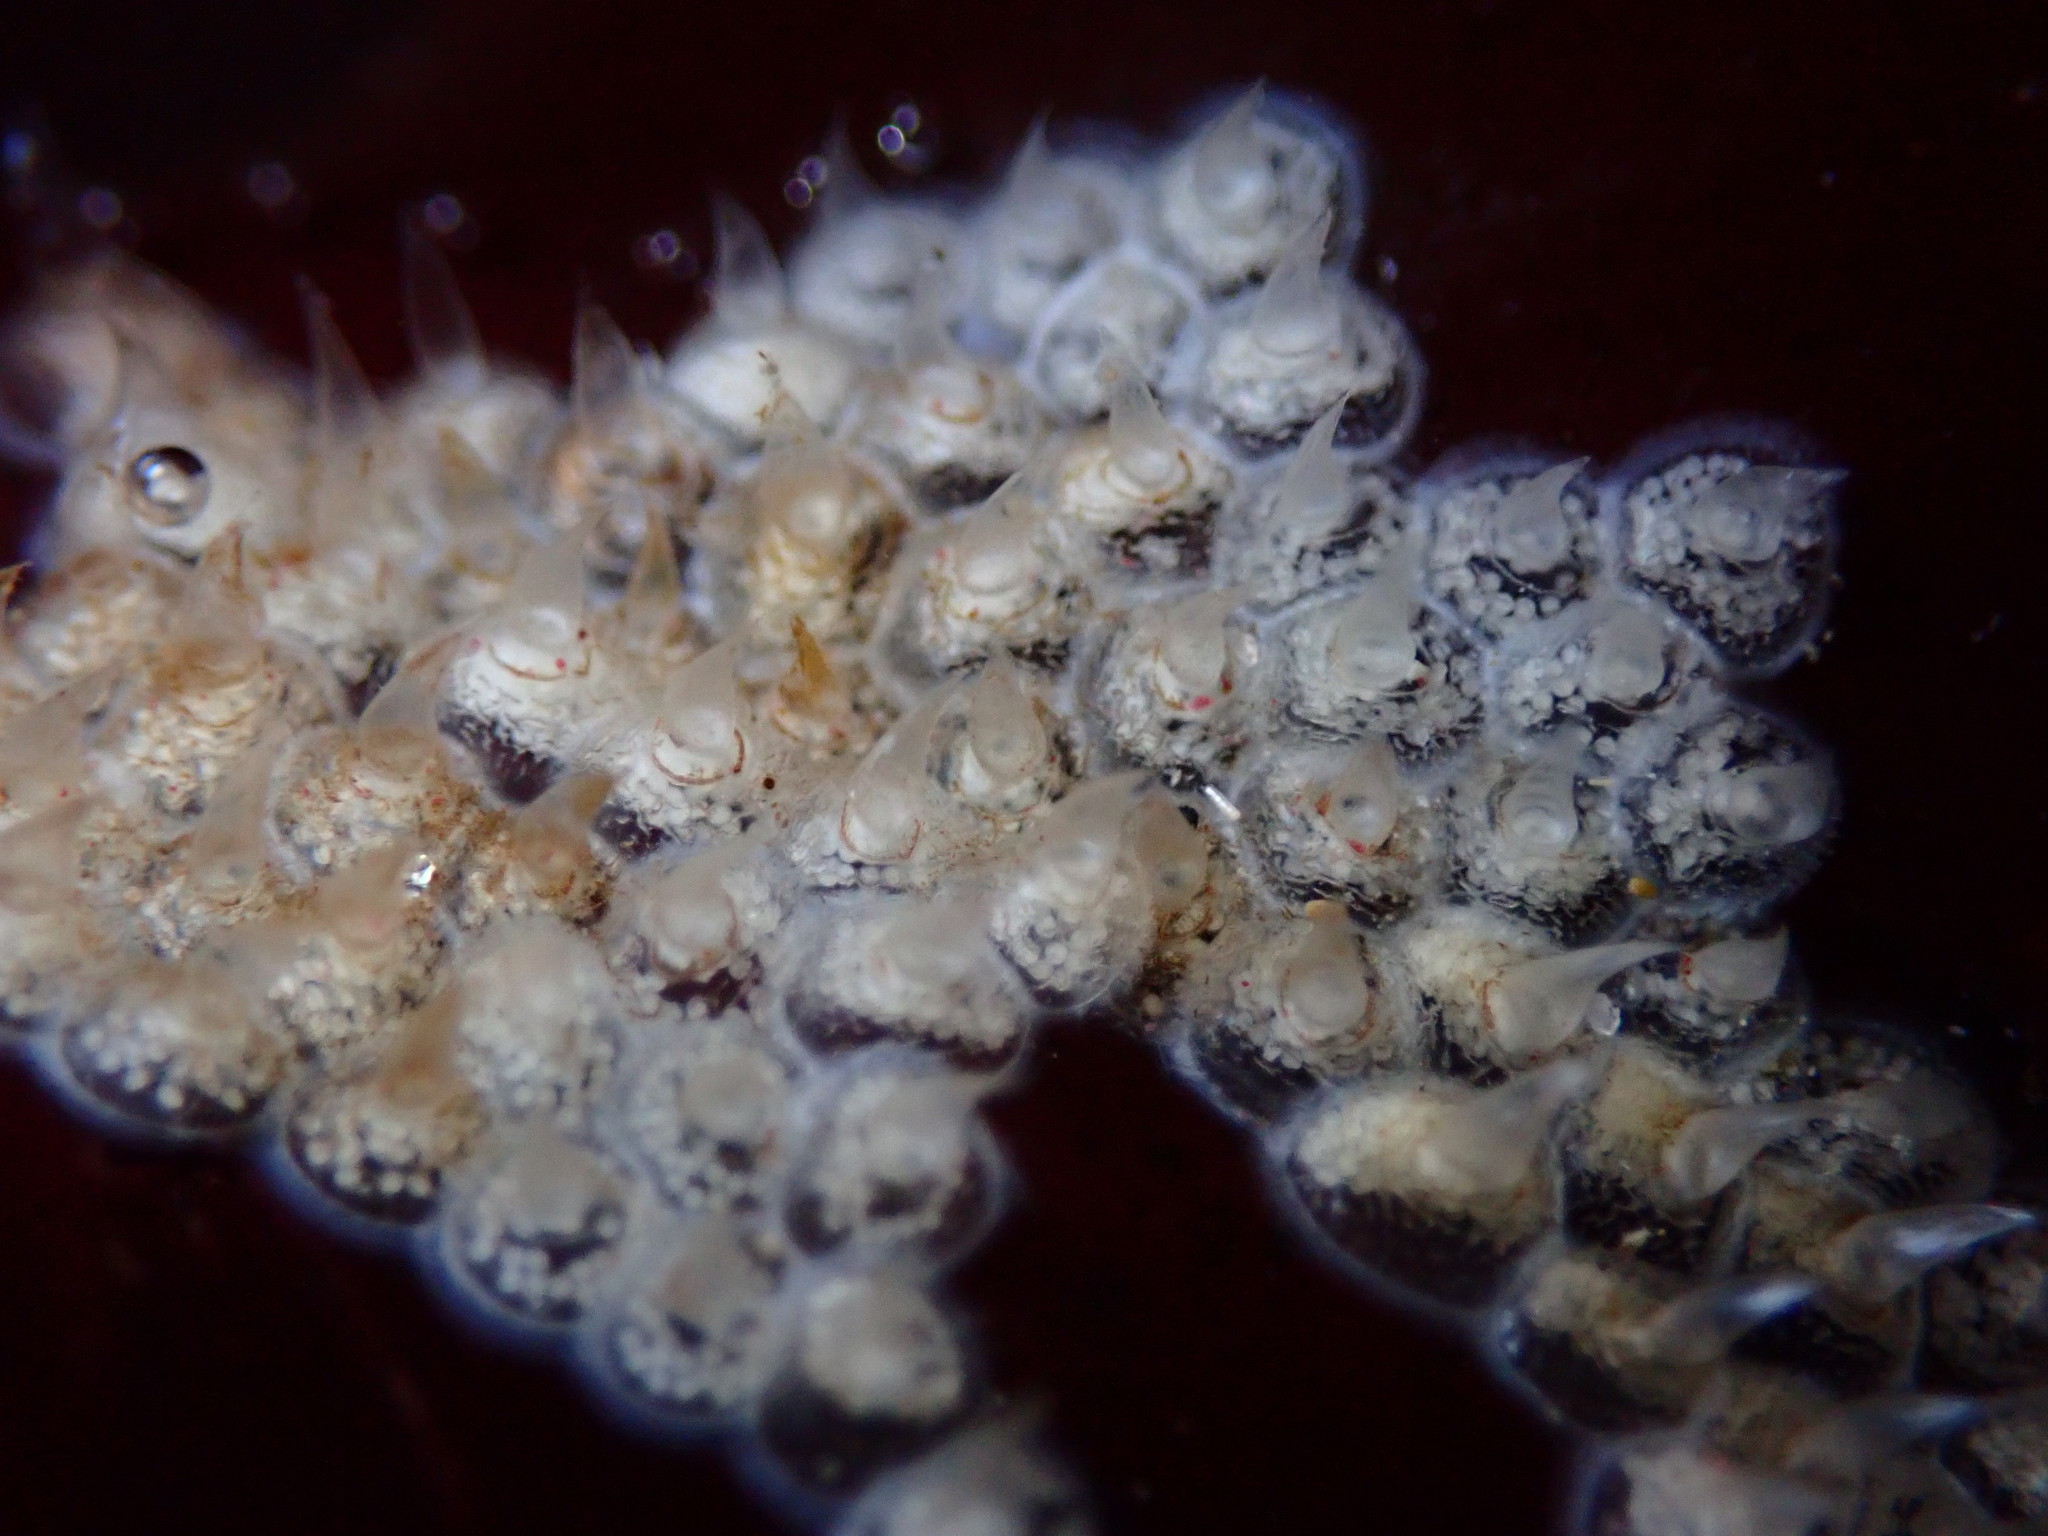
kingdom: Animalia
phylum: Mollusca
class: Gastropoda
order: Neogastropoda
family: Columbellidae
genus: Amphissa
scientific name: Amphissa versicolor
